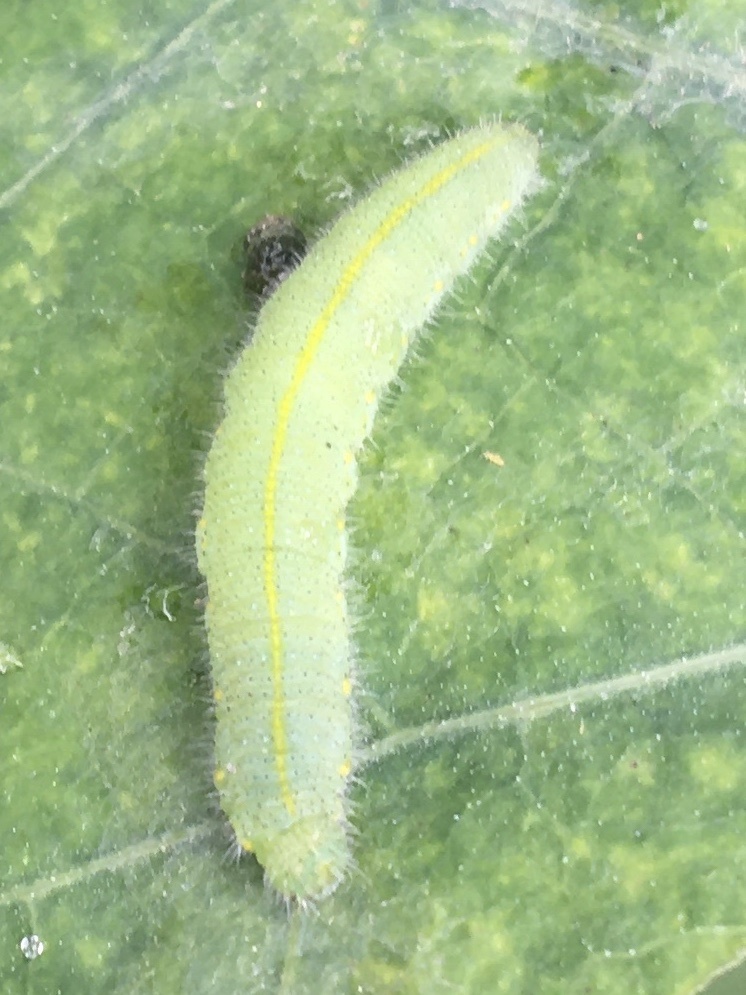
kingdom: Animalia
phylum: Arthropoda
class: Insecta
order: Lepidoptera
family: Pieridae
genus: Pieris
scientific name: Pieris rapae
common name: Small white
